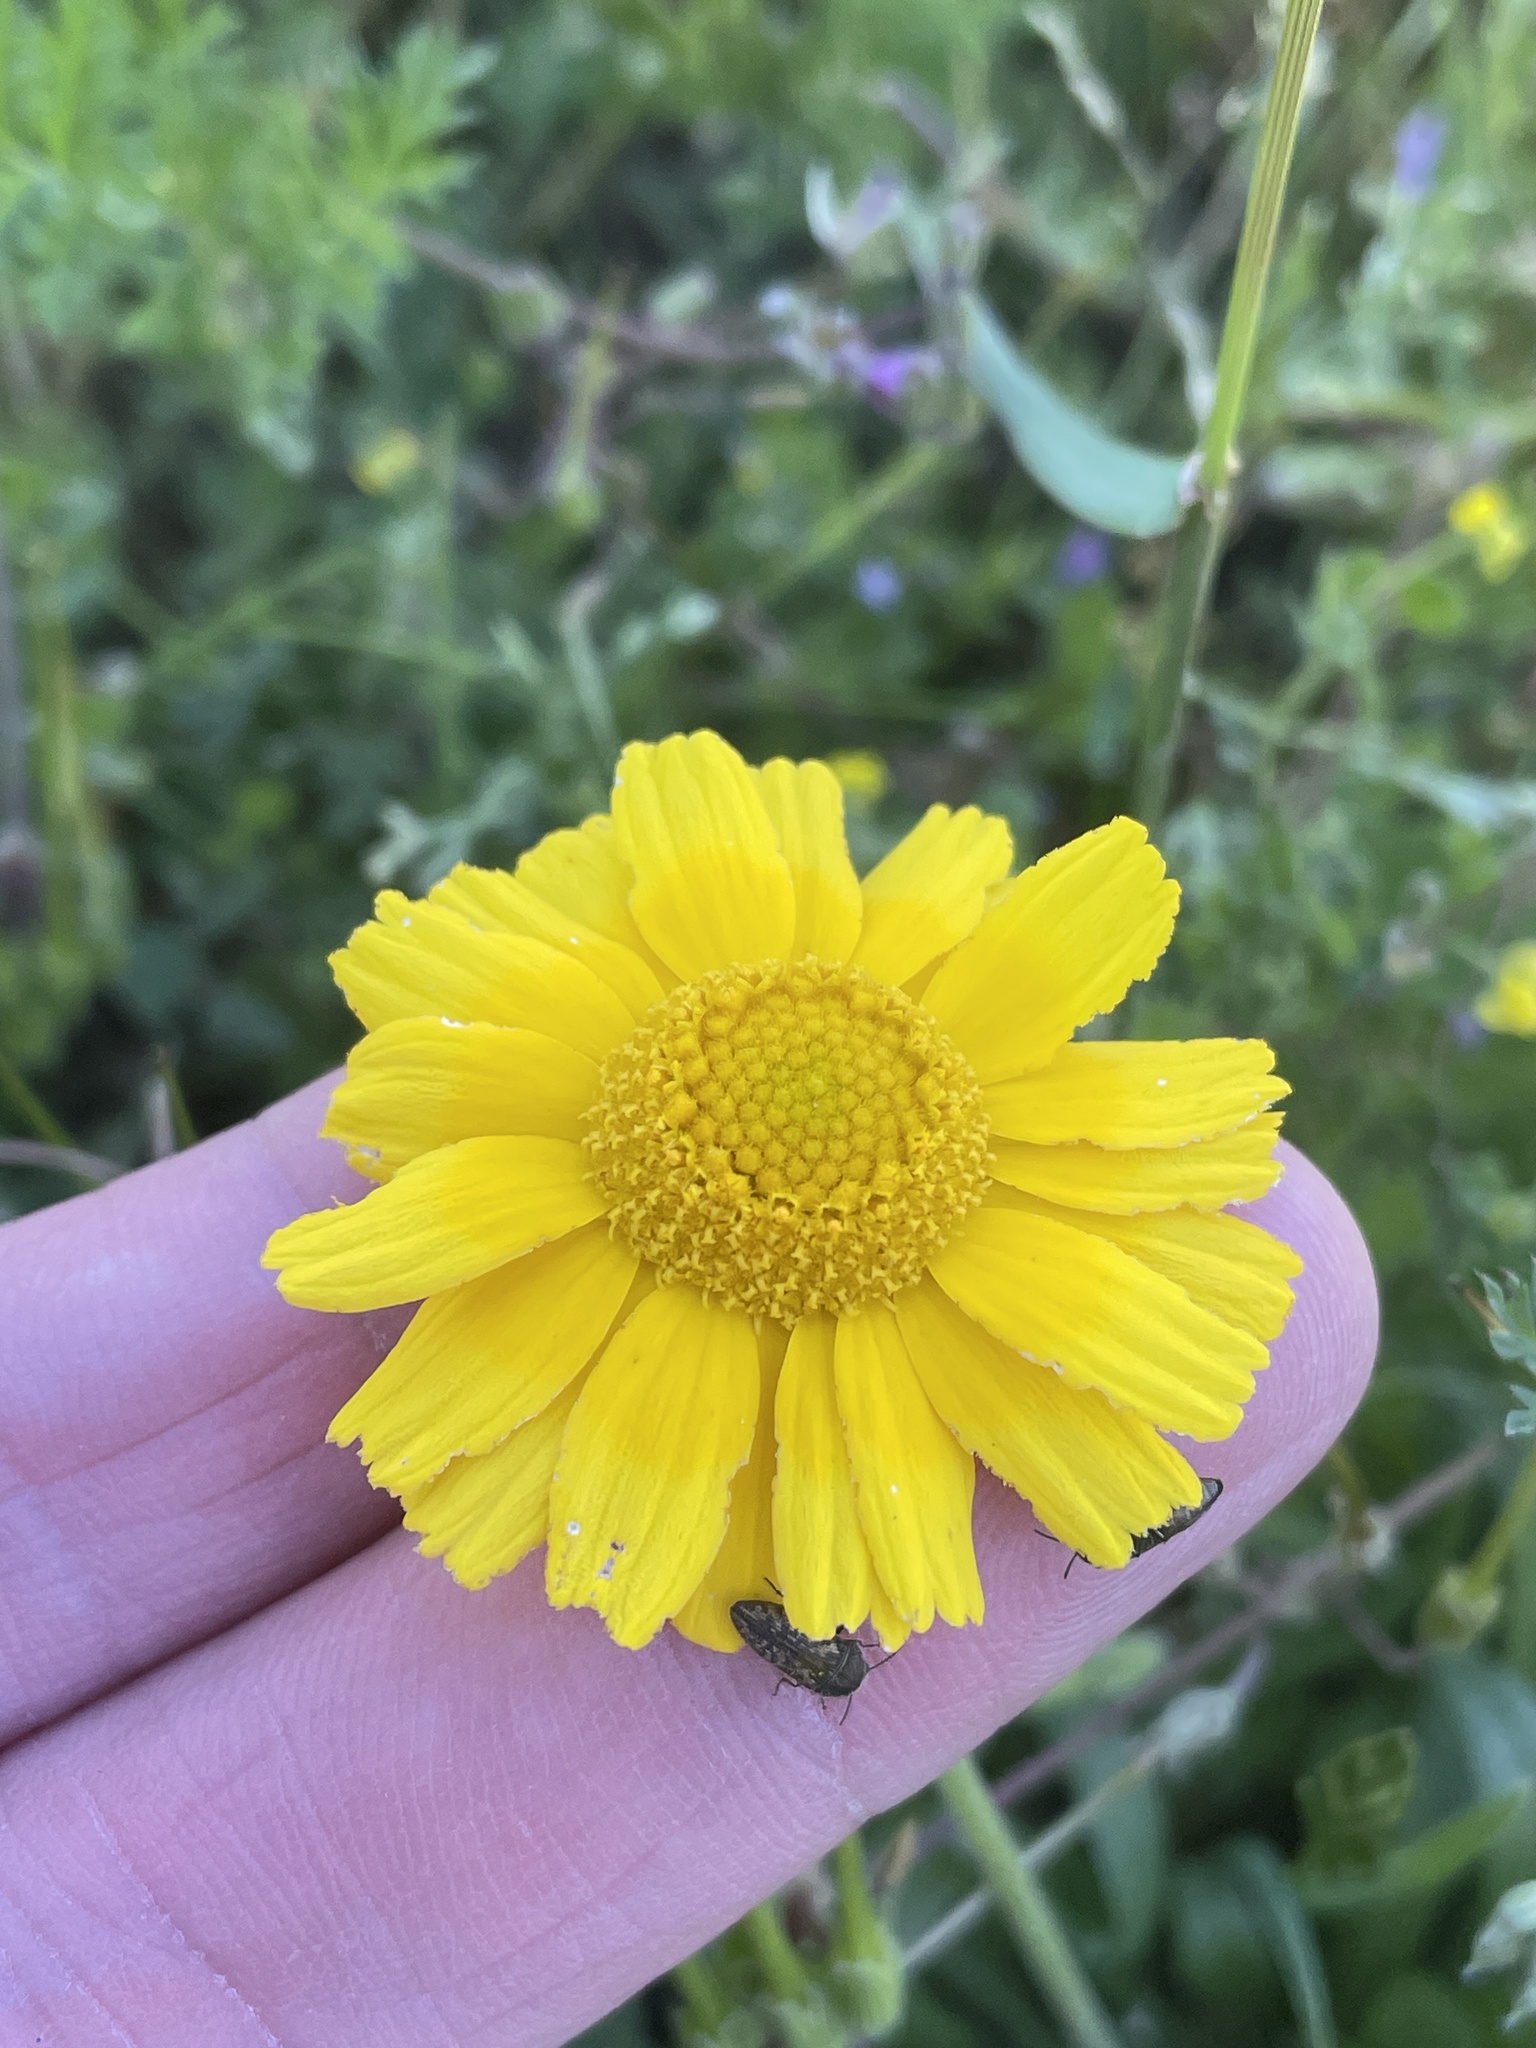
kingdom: Plantae
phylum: Tracheophyta
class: Magnoliopsida
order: Asterales
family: Asteraceae
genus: Tetraneuris
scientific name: Tetraneuris scaposa
